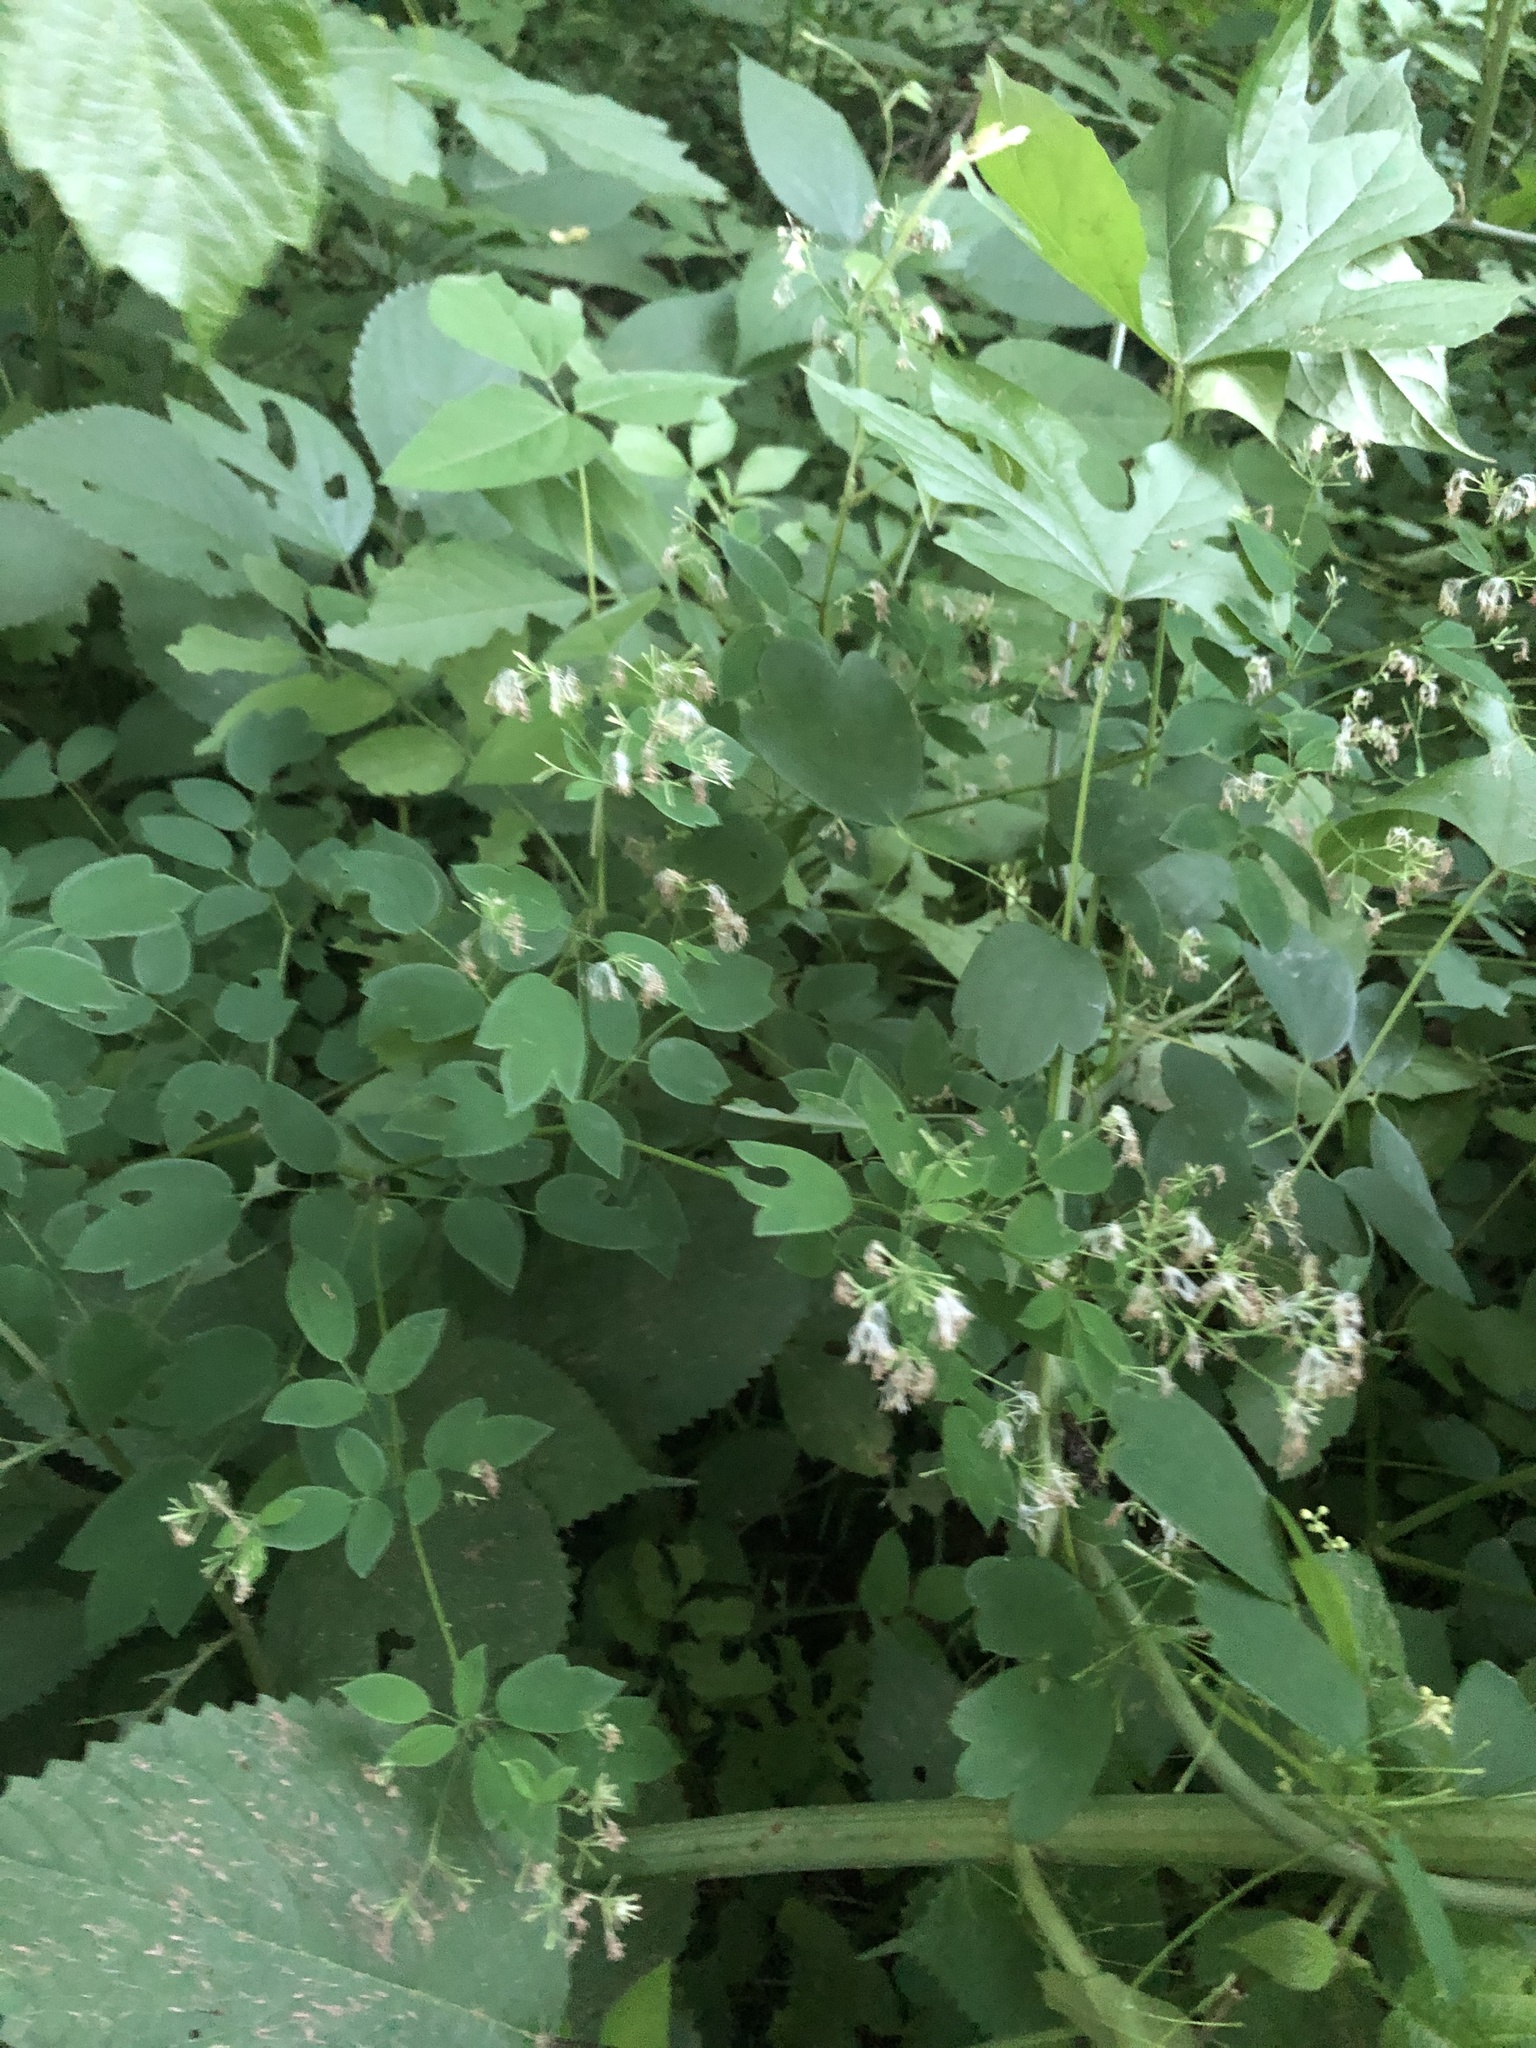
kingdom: Plantae
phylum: Tracheophyta
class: Magnoliopsida
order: Ranunculales
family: Ranunculaceae
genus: Thalictrum
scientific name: Thalictrum revolutum
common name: Waxy meadow-rue
